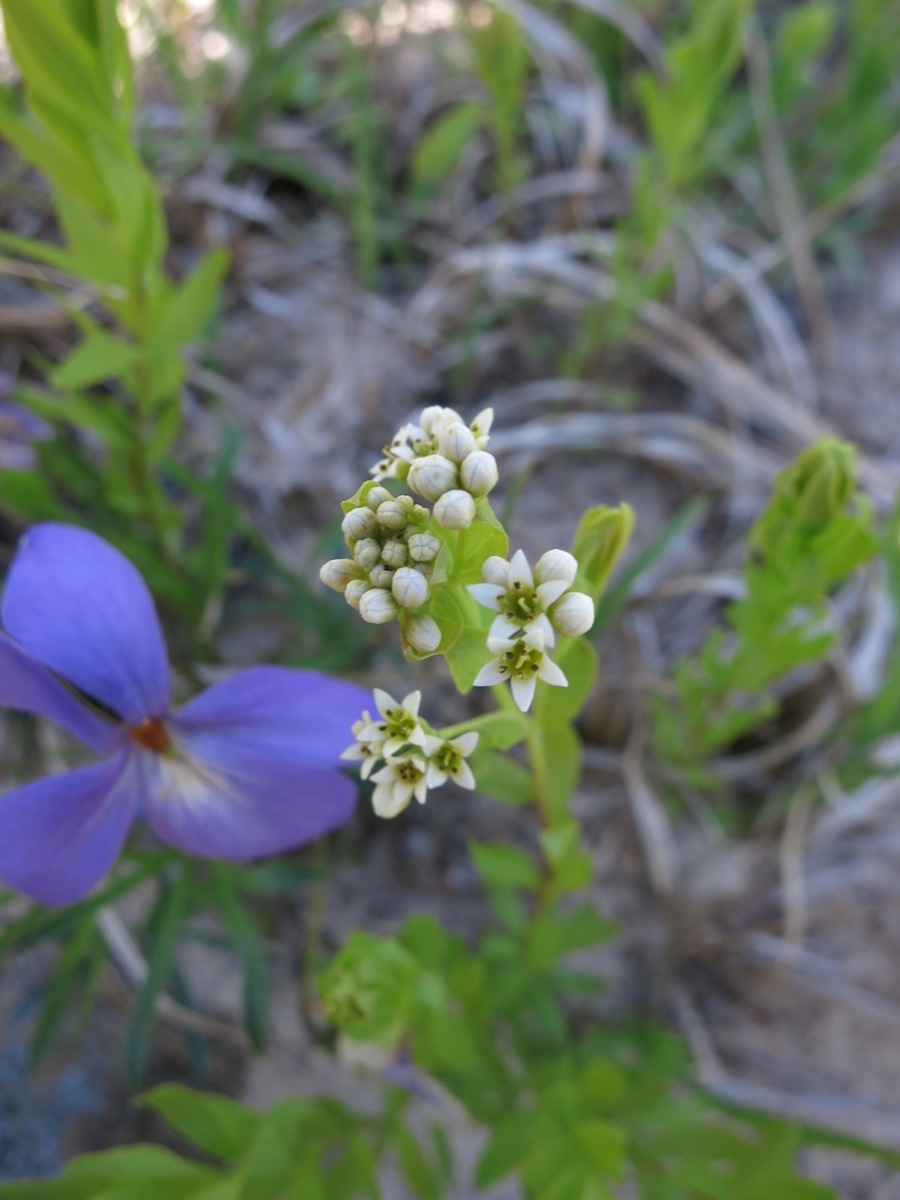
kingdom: Plantae
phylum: Tracheophyta
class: Magnoliopsida
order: Santalales
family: Comandraceae
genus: Comandra
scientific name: Comandra umbellata
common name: Bastard toadflax
